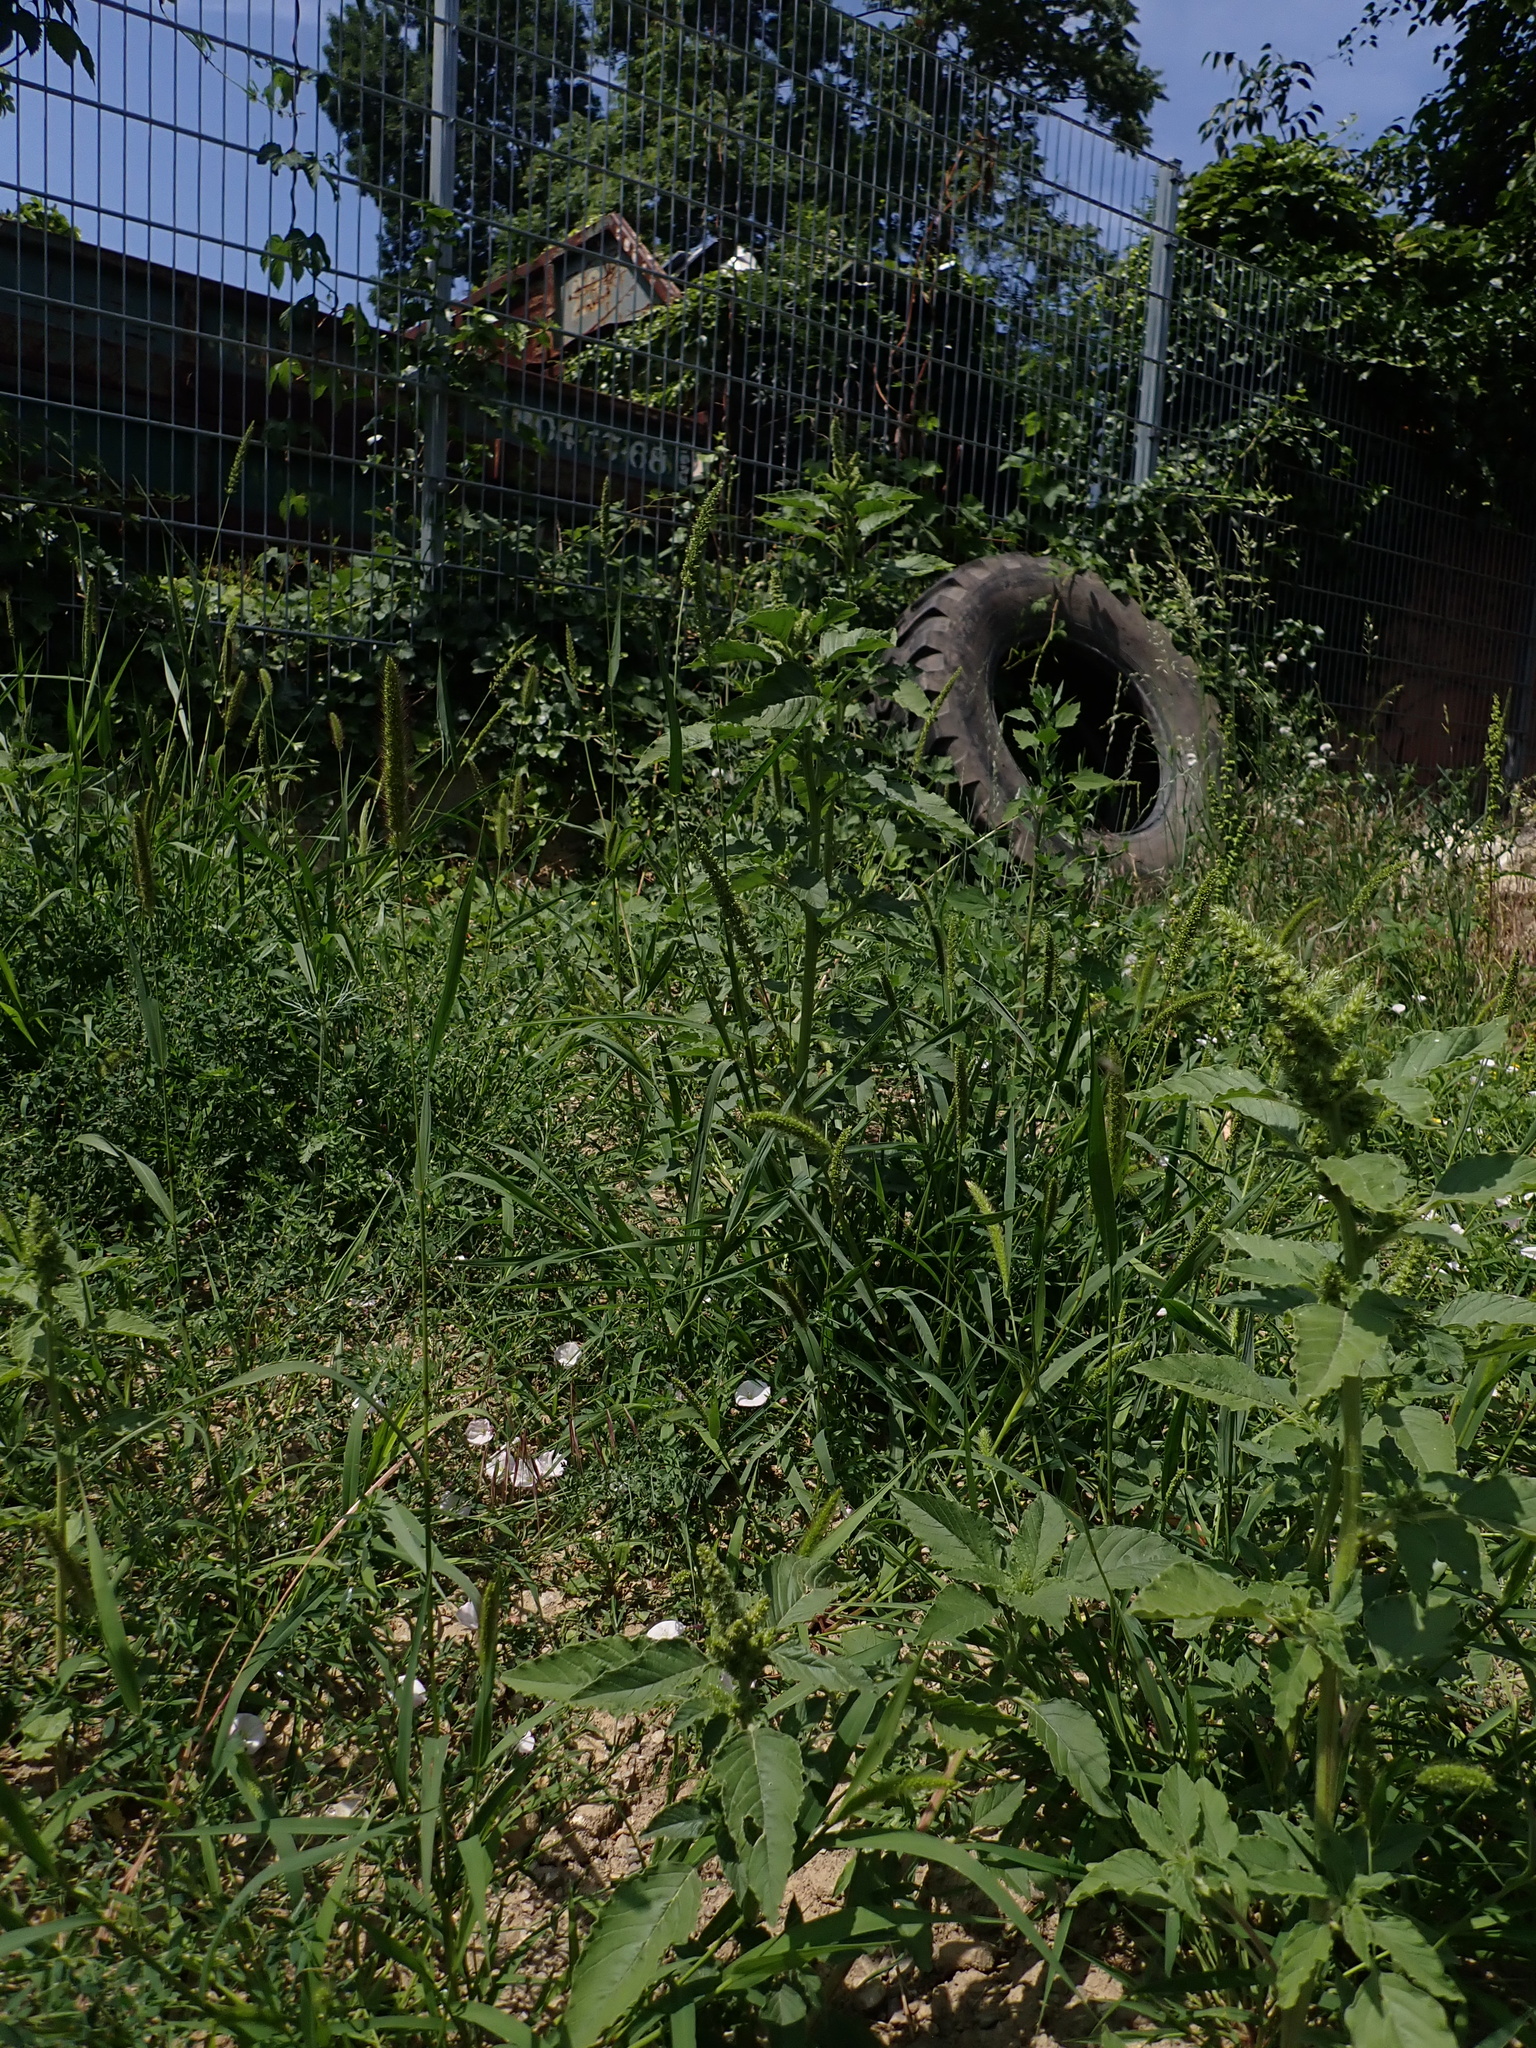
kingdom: Plantae
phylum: Tracheophyta
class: Liliopsida
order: Poales
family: Poaceae
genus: Setaria
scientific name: Setaria viridis
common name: Green bristlegrass
